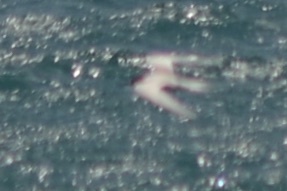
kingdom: Animalia
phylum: Chordata
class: Aves
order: Charadriiformes
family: Laridae
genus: Sterna
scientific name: Sterna striata
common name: White-fronted tern
